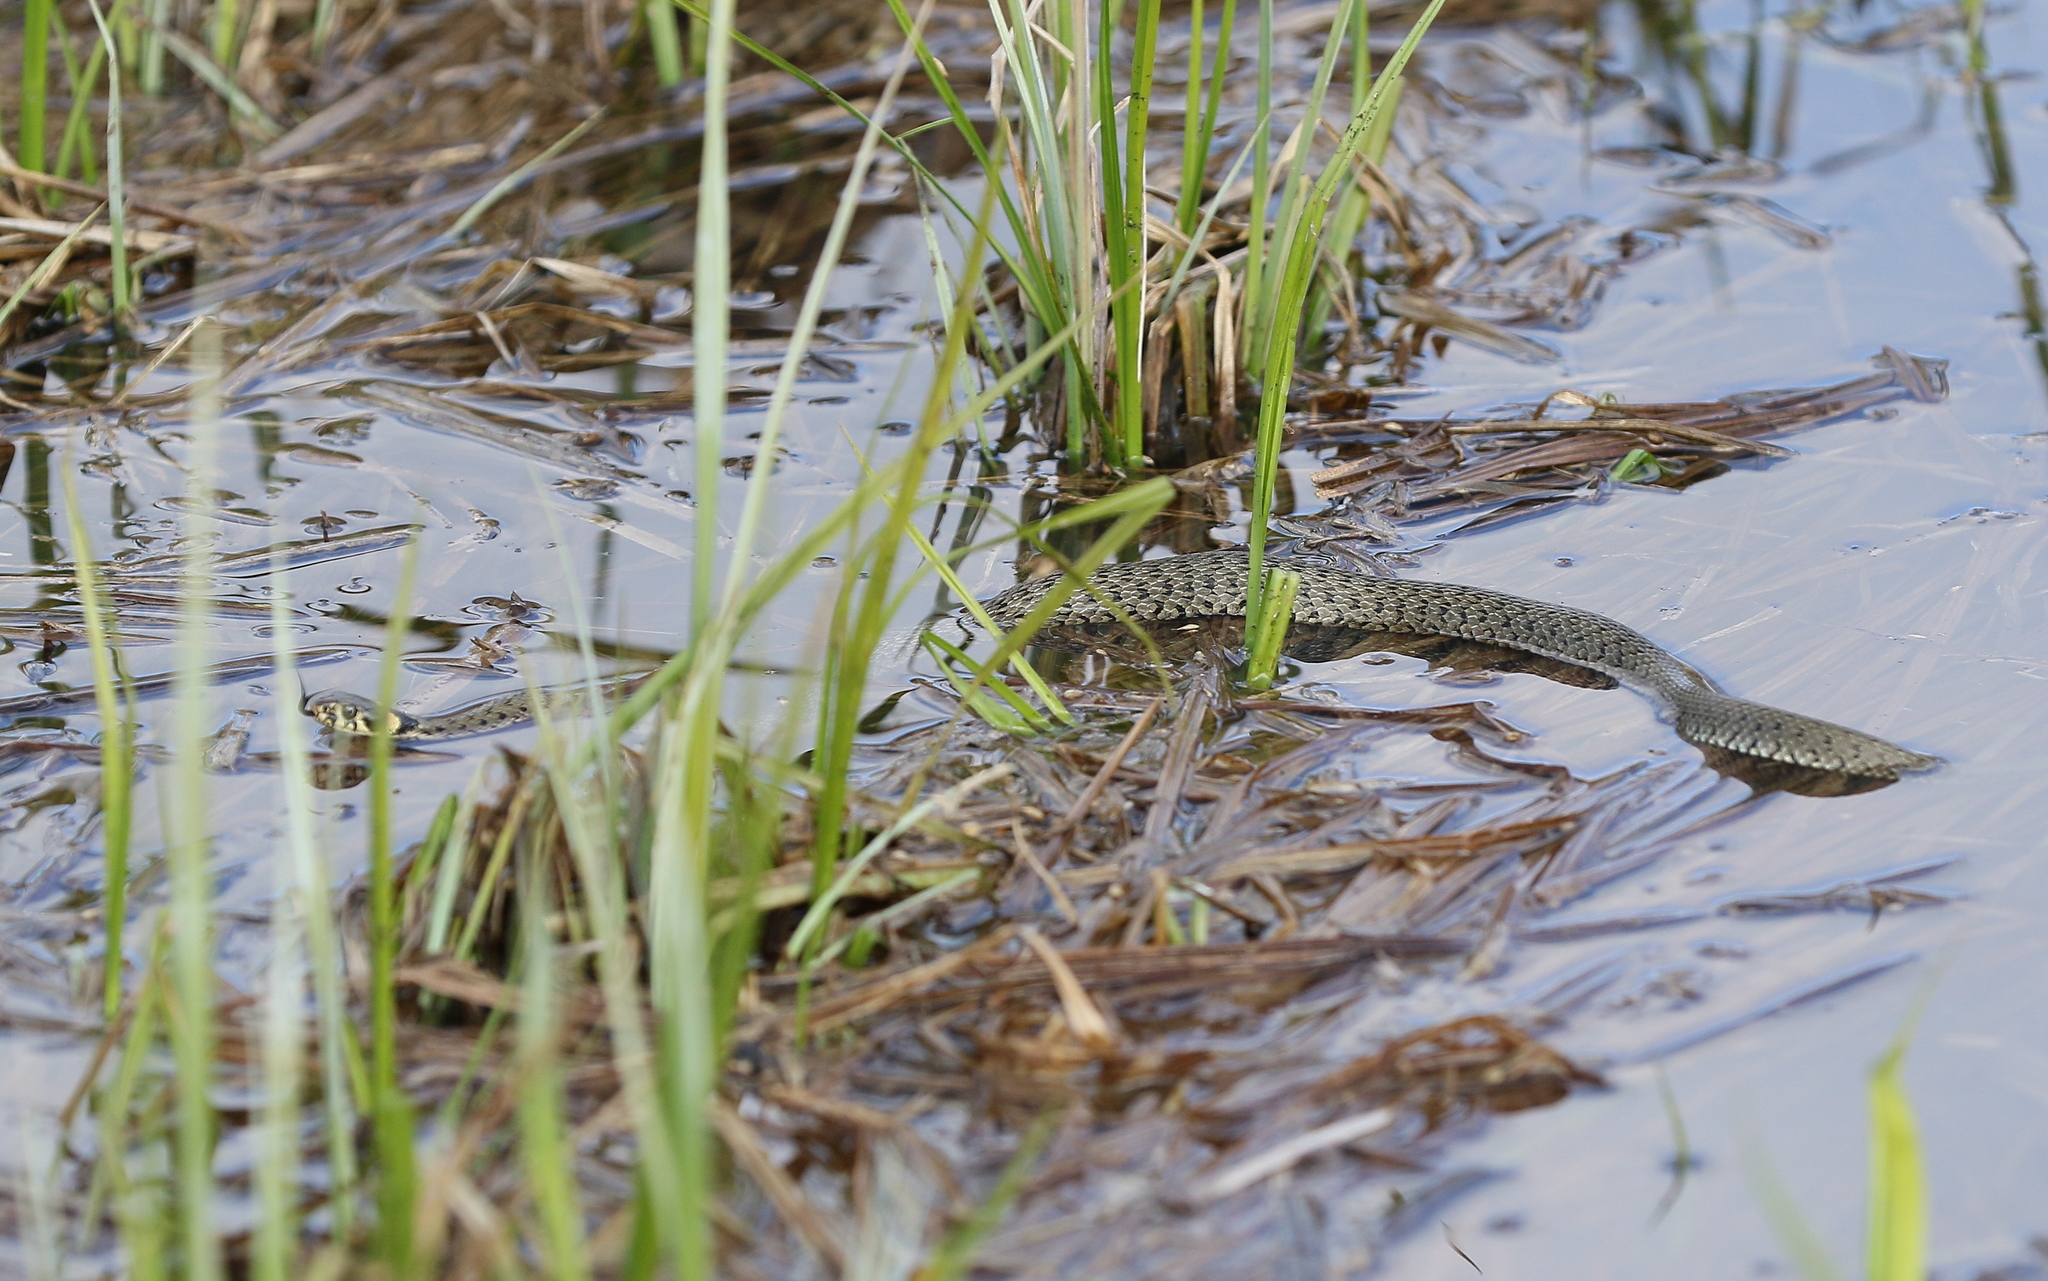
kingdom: Animalia
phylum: Chordata
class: Squamata
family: Colubridae
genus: Natrix
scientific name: Natrix natrix
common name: Grass snake
